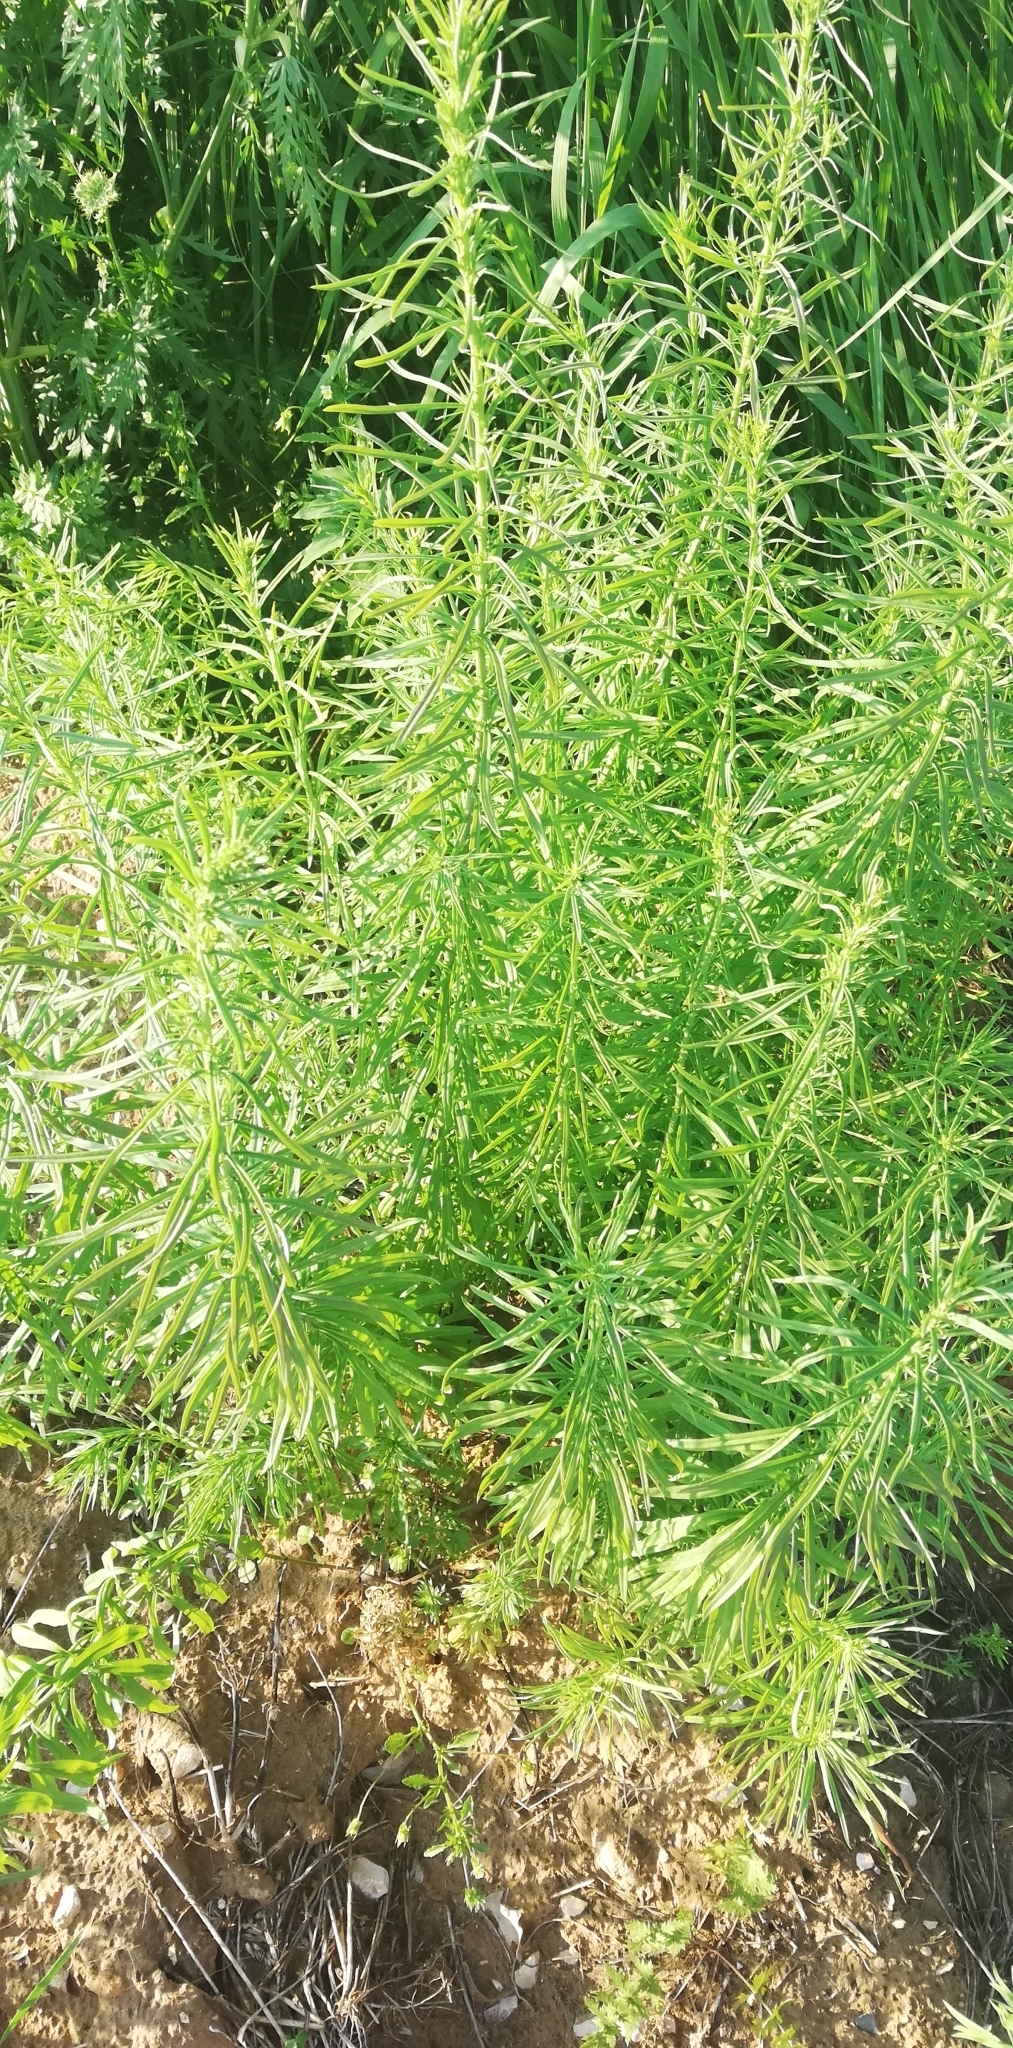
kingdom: Plantae
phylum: Tracheophyta
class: Magnoliopsida
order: Lamiales
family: Plantaginaceae
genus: Linaria
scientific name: Linaria vulgaris
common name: Butter and eggs
